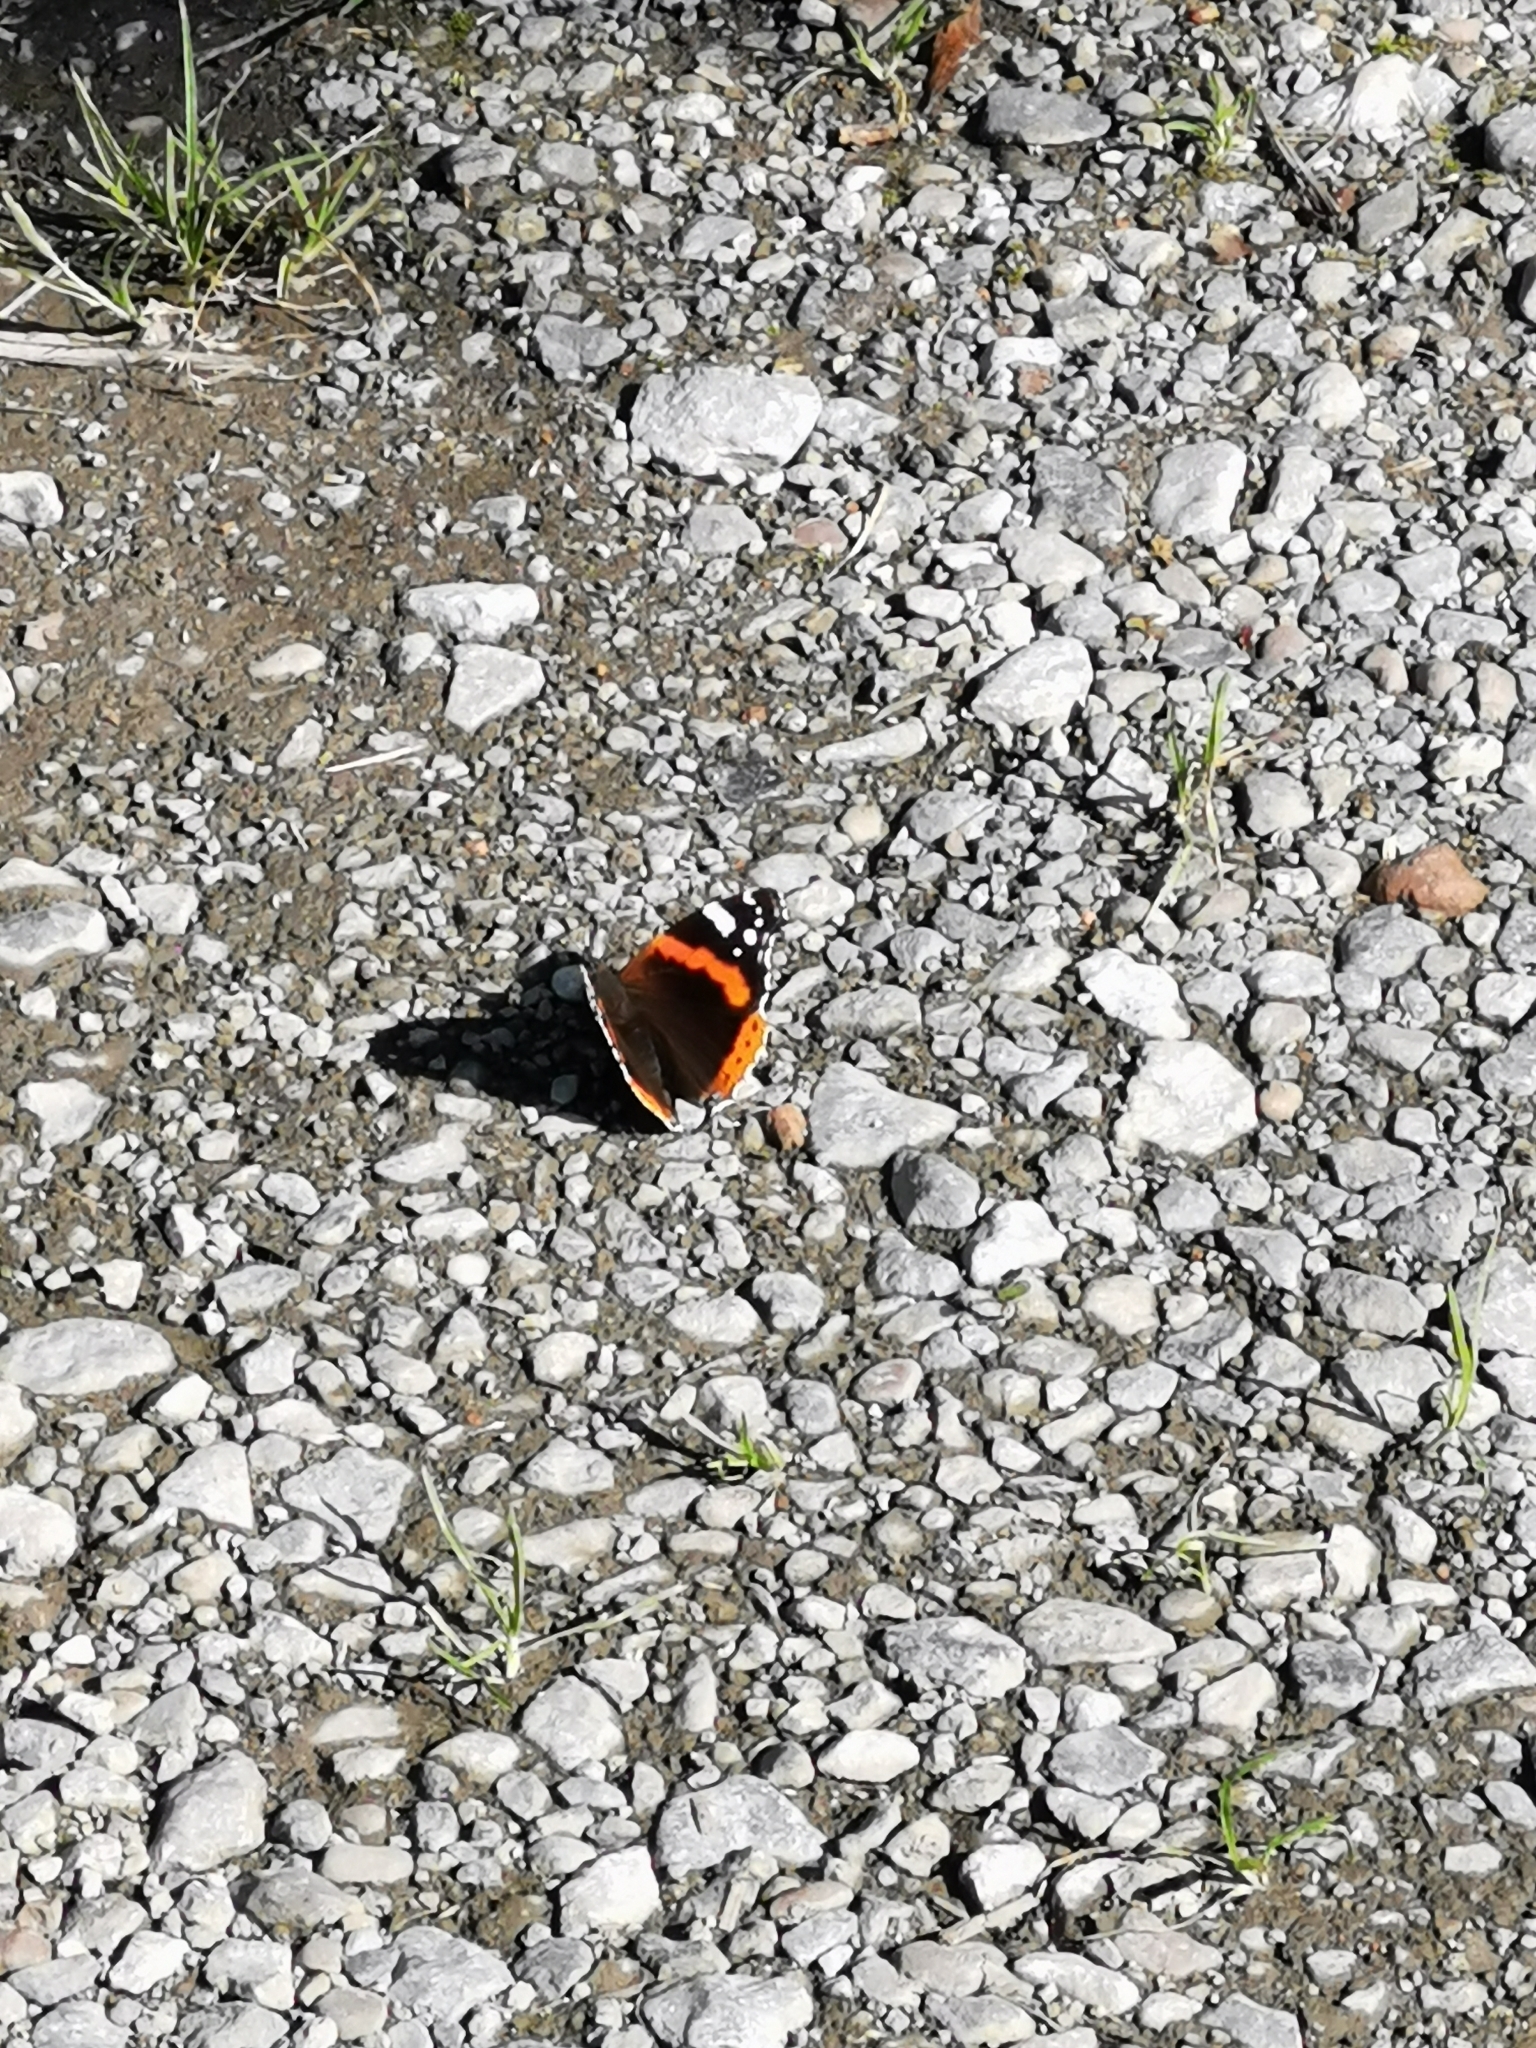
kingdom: Animalia
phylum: Arthropoda
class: Insecta
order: Lepidoptera
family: Nymphalidae
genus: Vanessa
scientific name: Vanessa atalanta
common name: Red admiral
